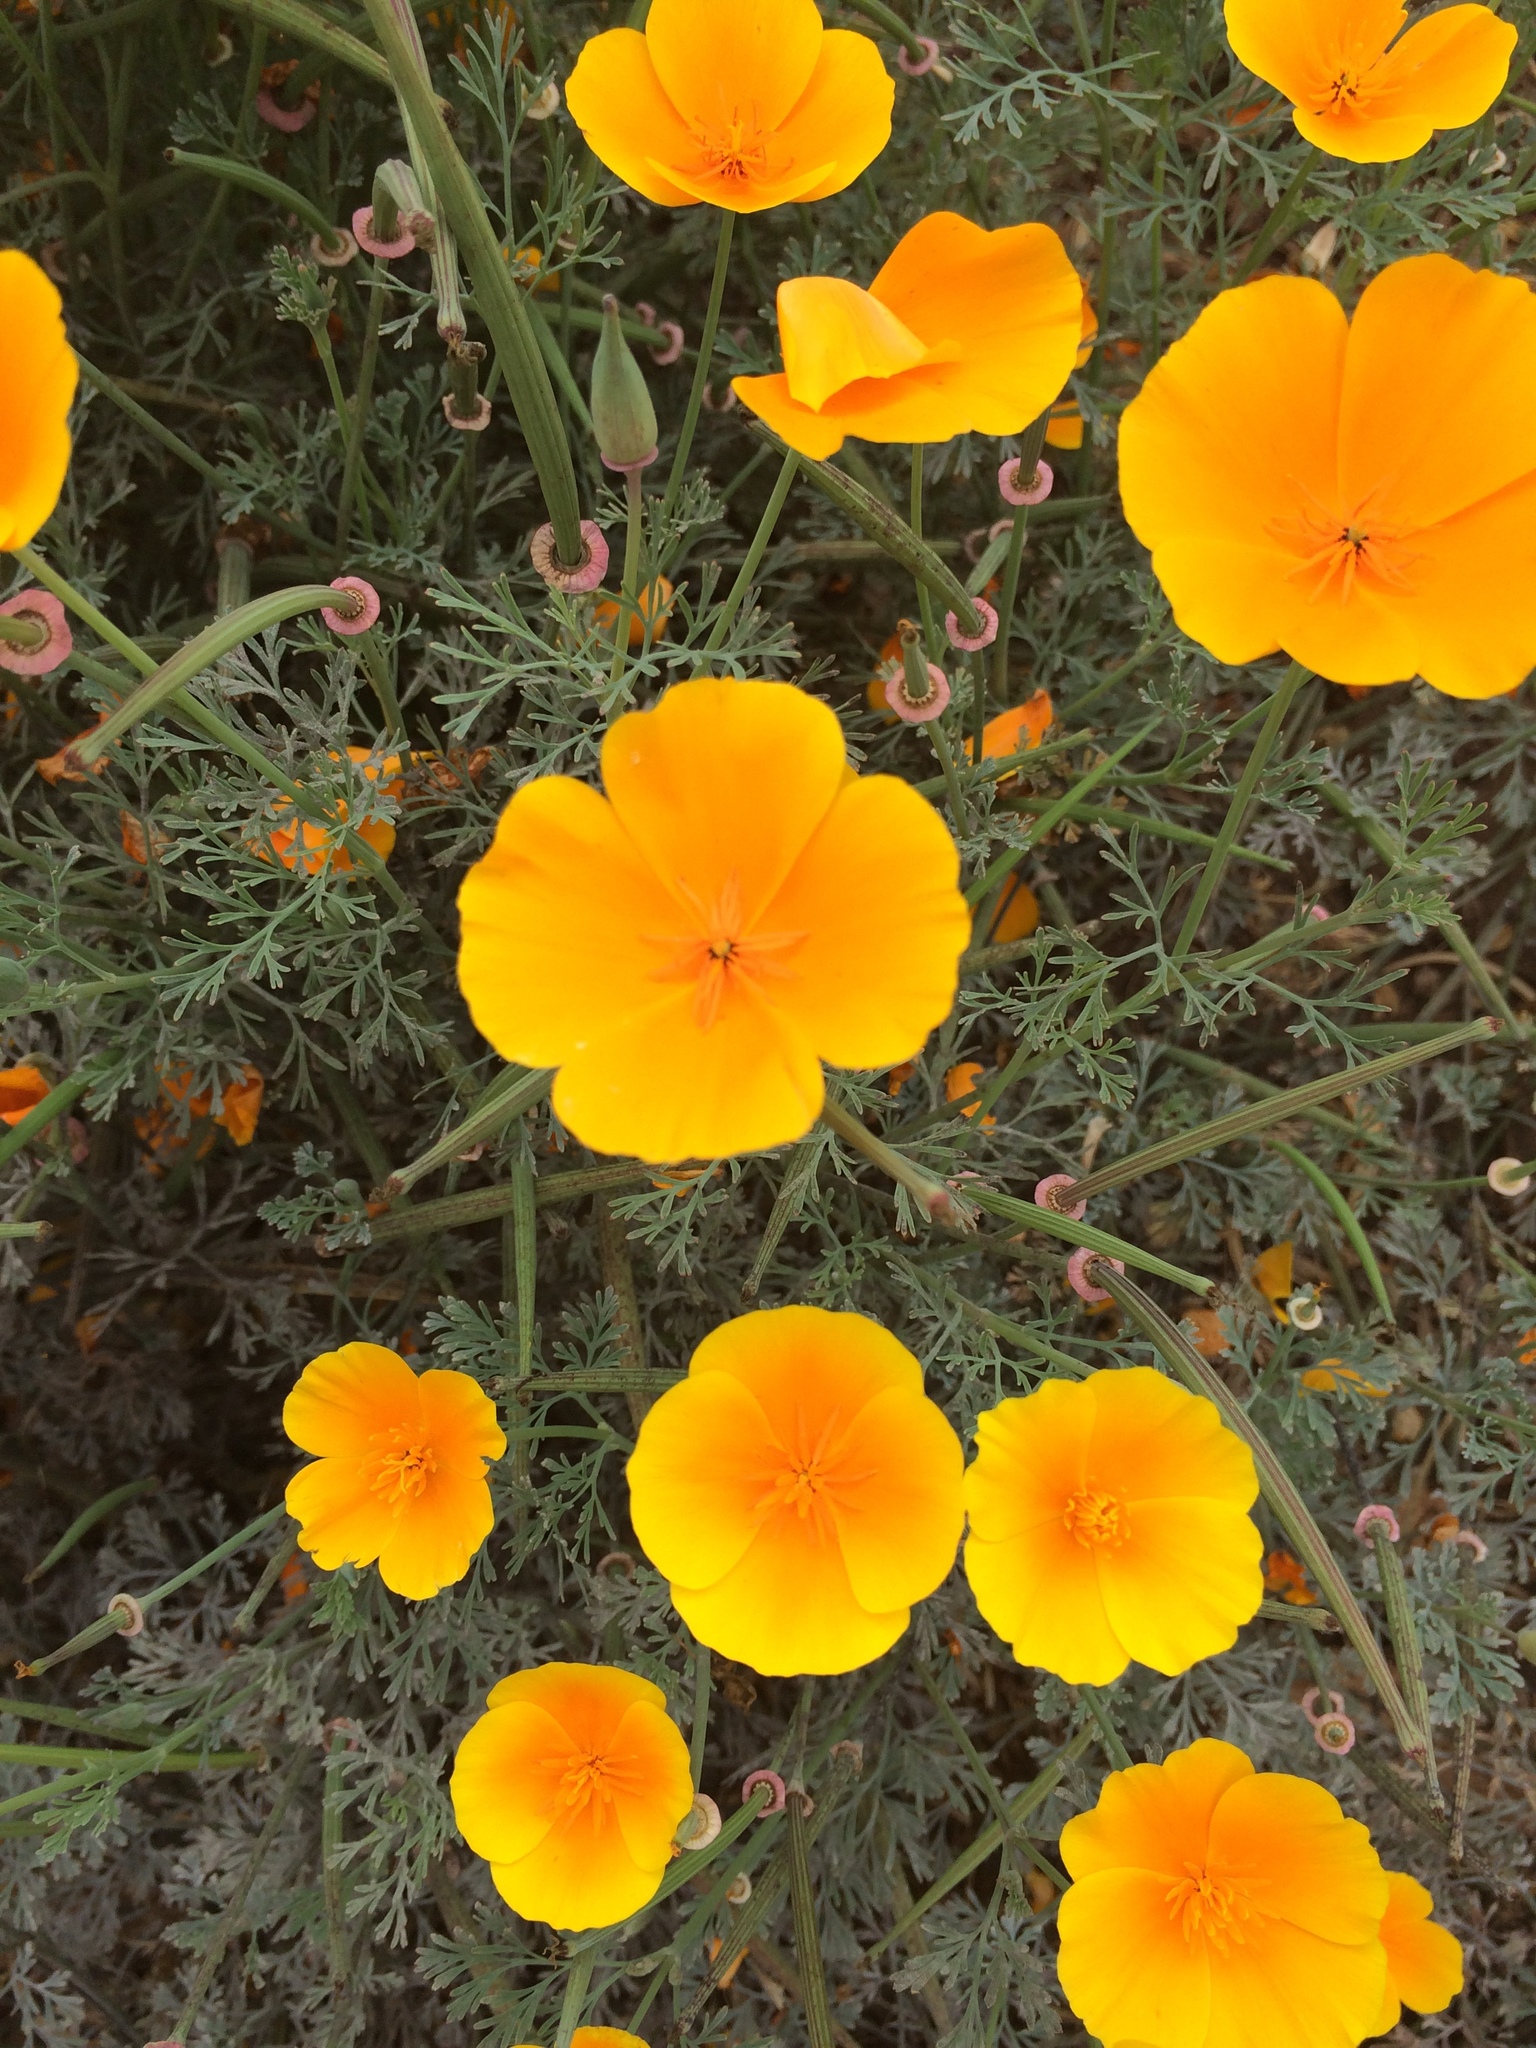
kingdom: Plantae
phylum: Tracheophyta
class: Magnoliopsida
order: Ranunculales
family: Papaveraceae
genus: Eschscholzia
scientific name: Eschscholzia californica
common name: California poppy
